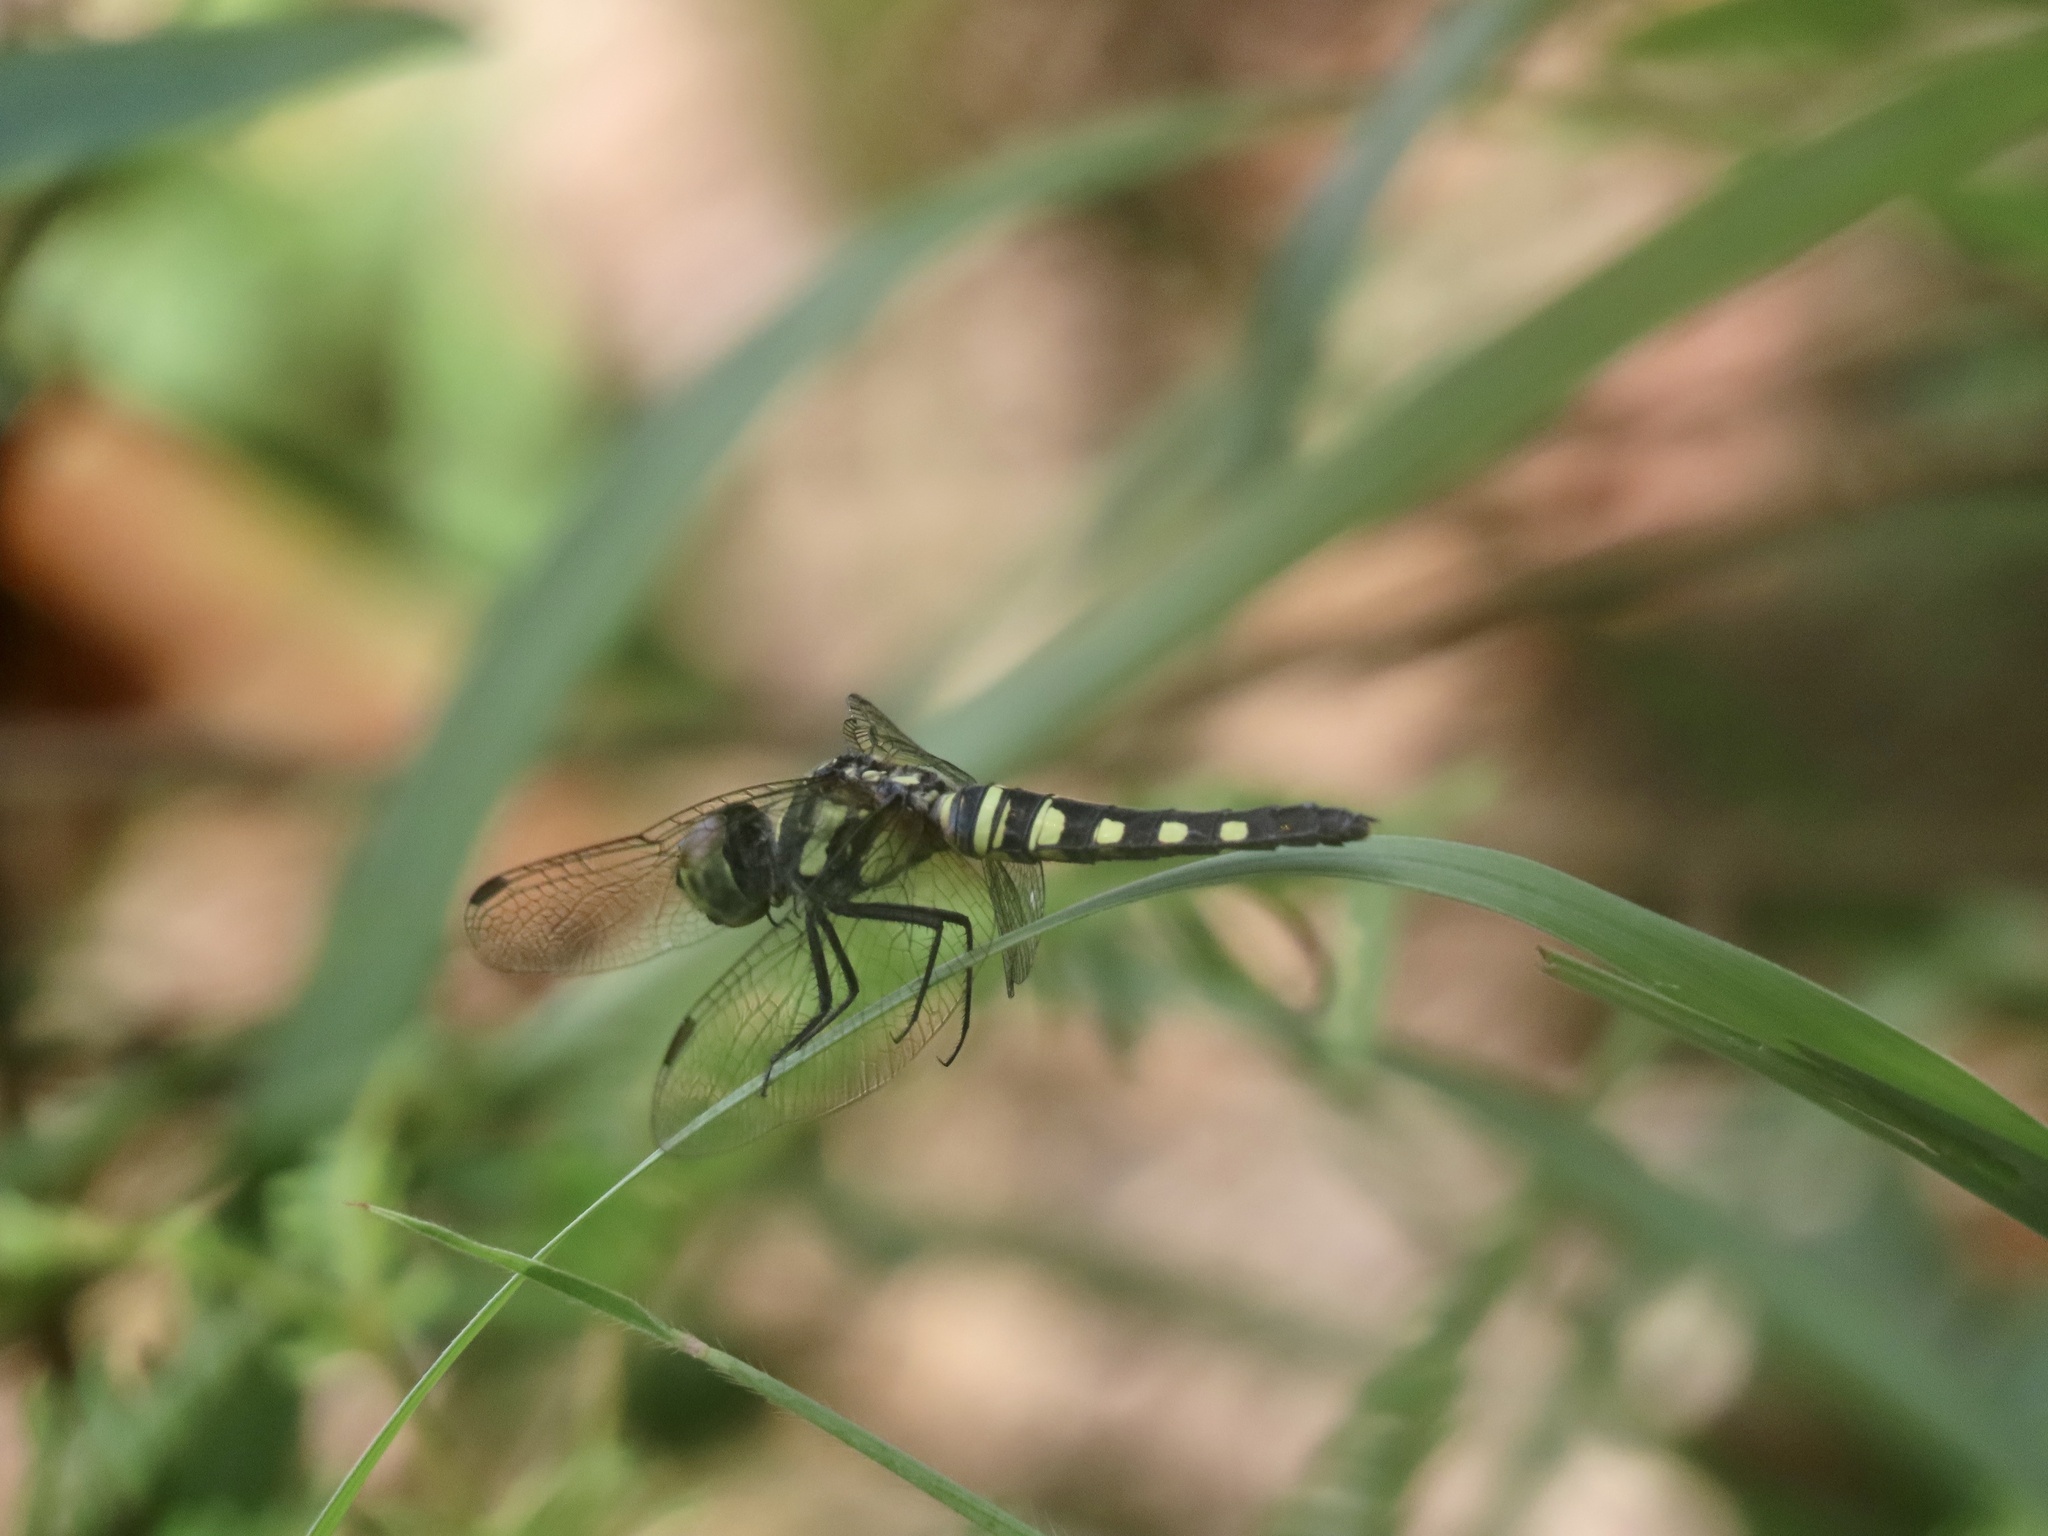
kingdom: Animalia
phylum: Arthropoda
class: Insecta
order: Odonata
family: Libellulidae
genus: Brachydiplax
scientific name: Brachydiplax chalybea
